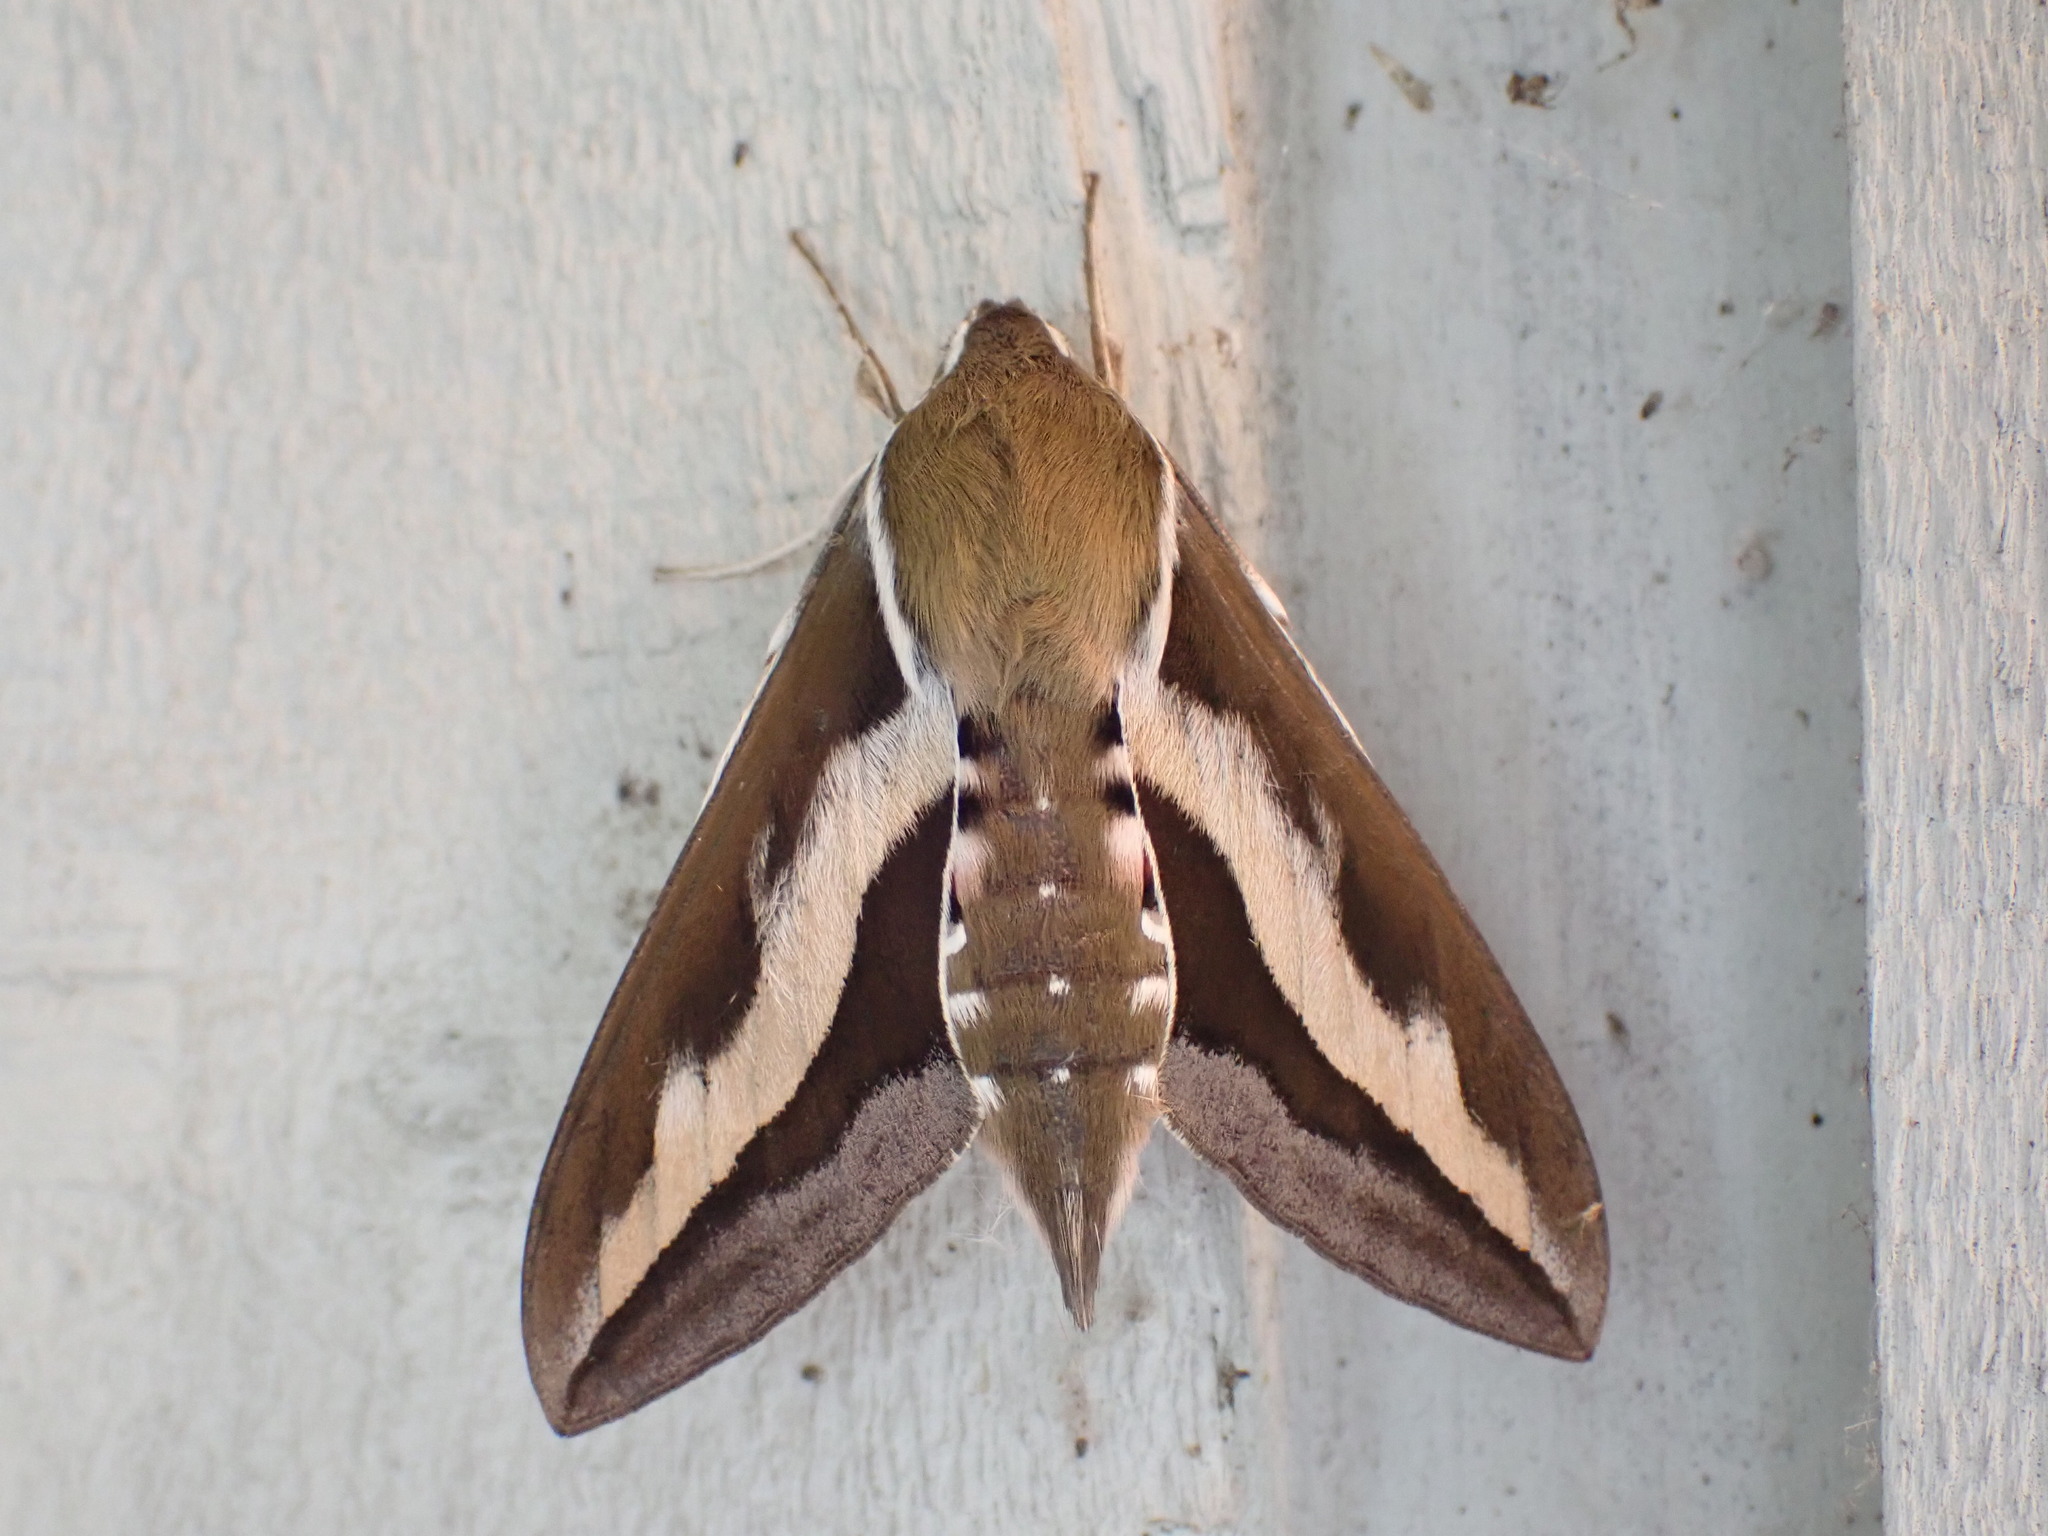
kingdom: Animalia
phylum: Arthropoda
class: Insecta
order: Lepidoptera
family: Sphingidae
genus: Hyles
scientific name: Hyles gallii
